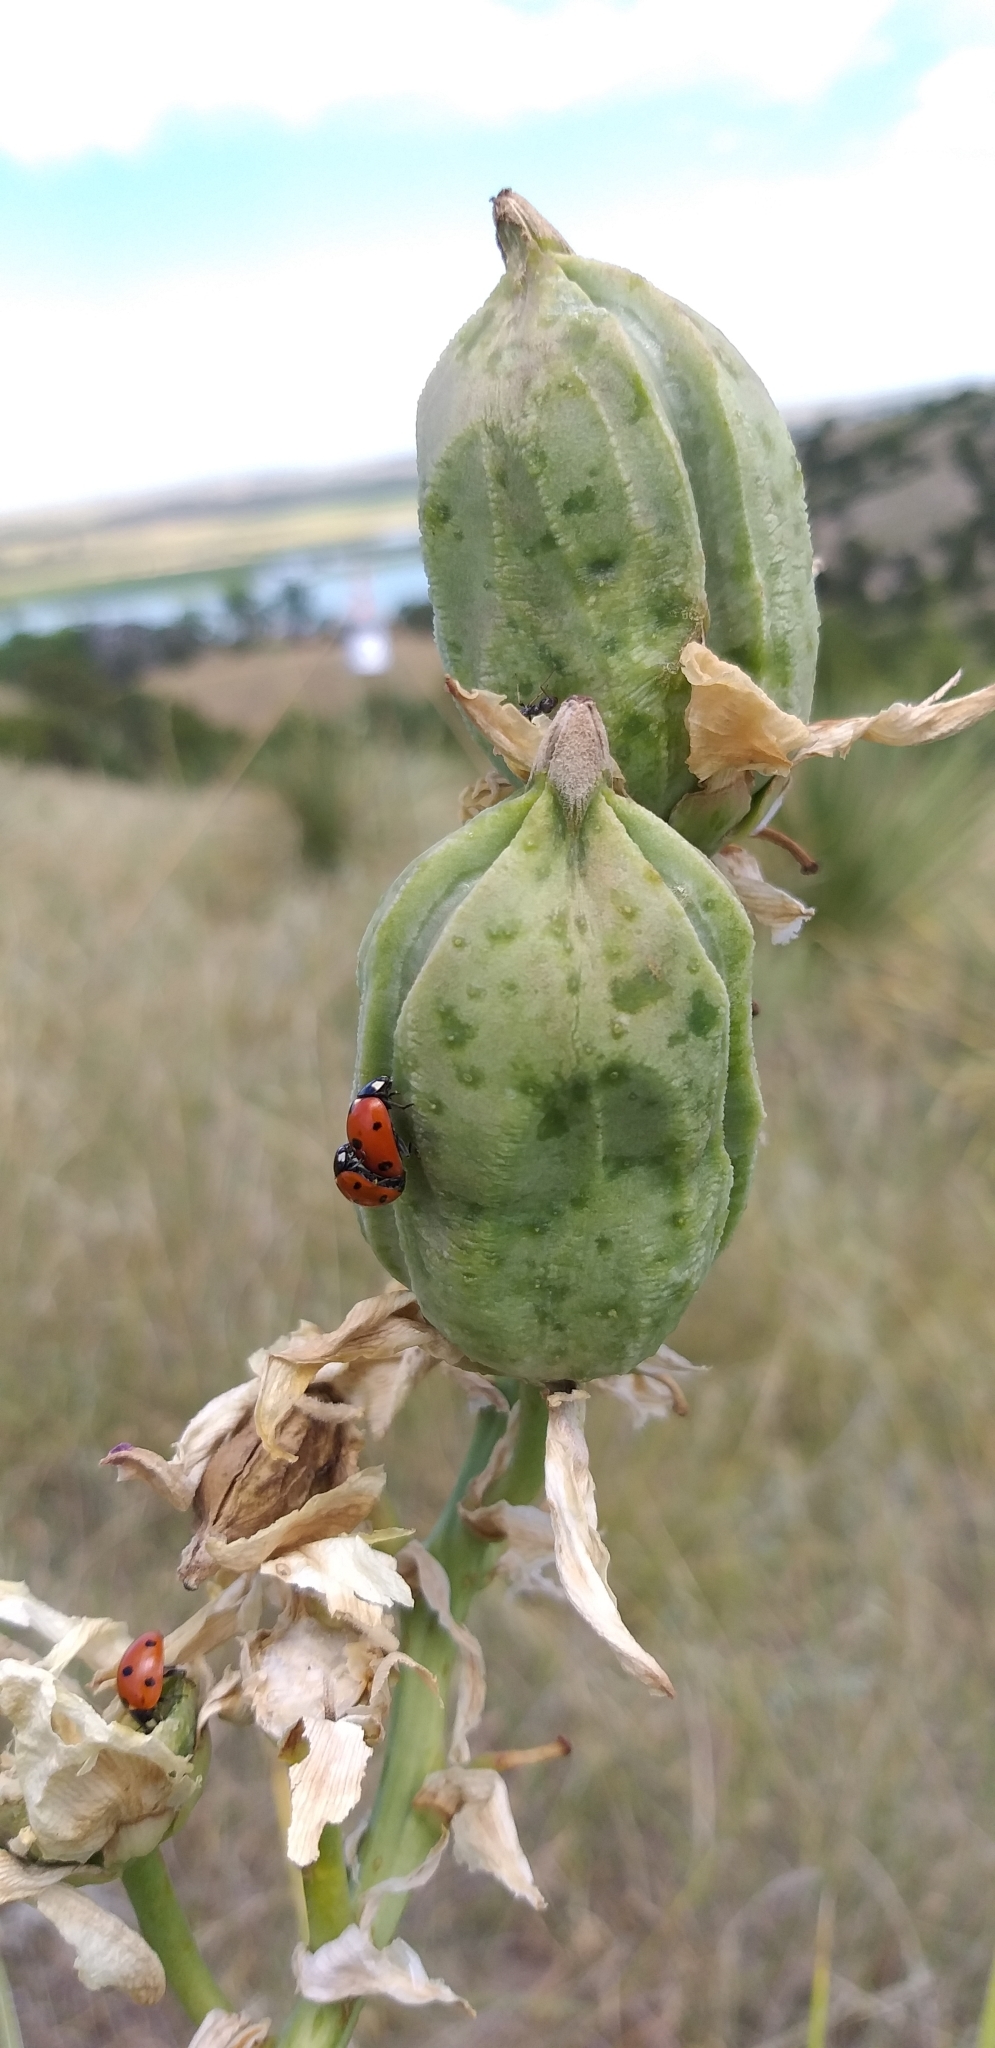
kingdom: Animalia
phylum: Arthropoda
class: Insecta
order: Coleoptera
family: Coccinellidae
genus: Coccinella
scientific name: Coccinella septempunctata
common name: Sevenspotted lady beetle
